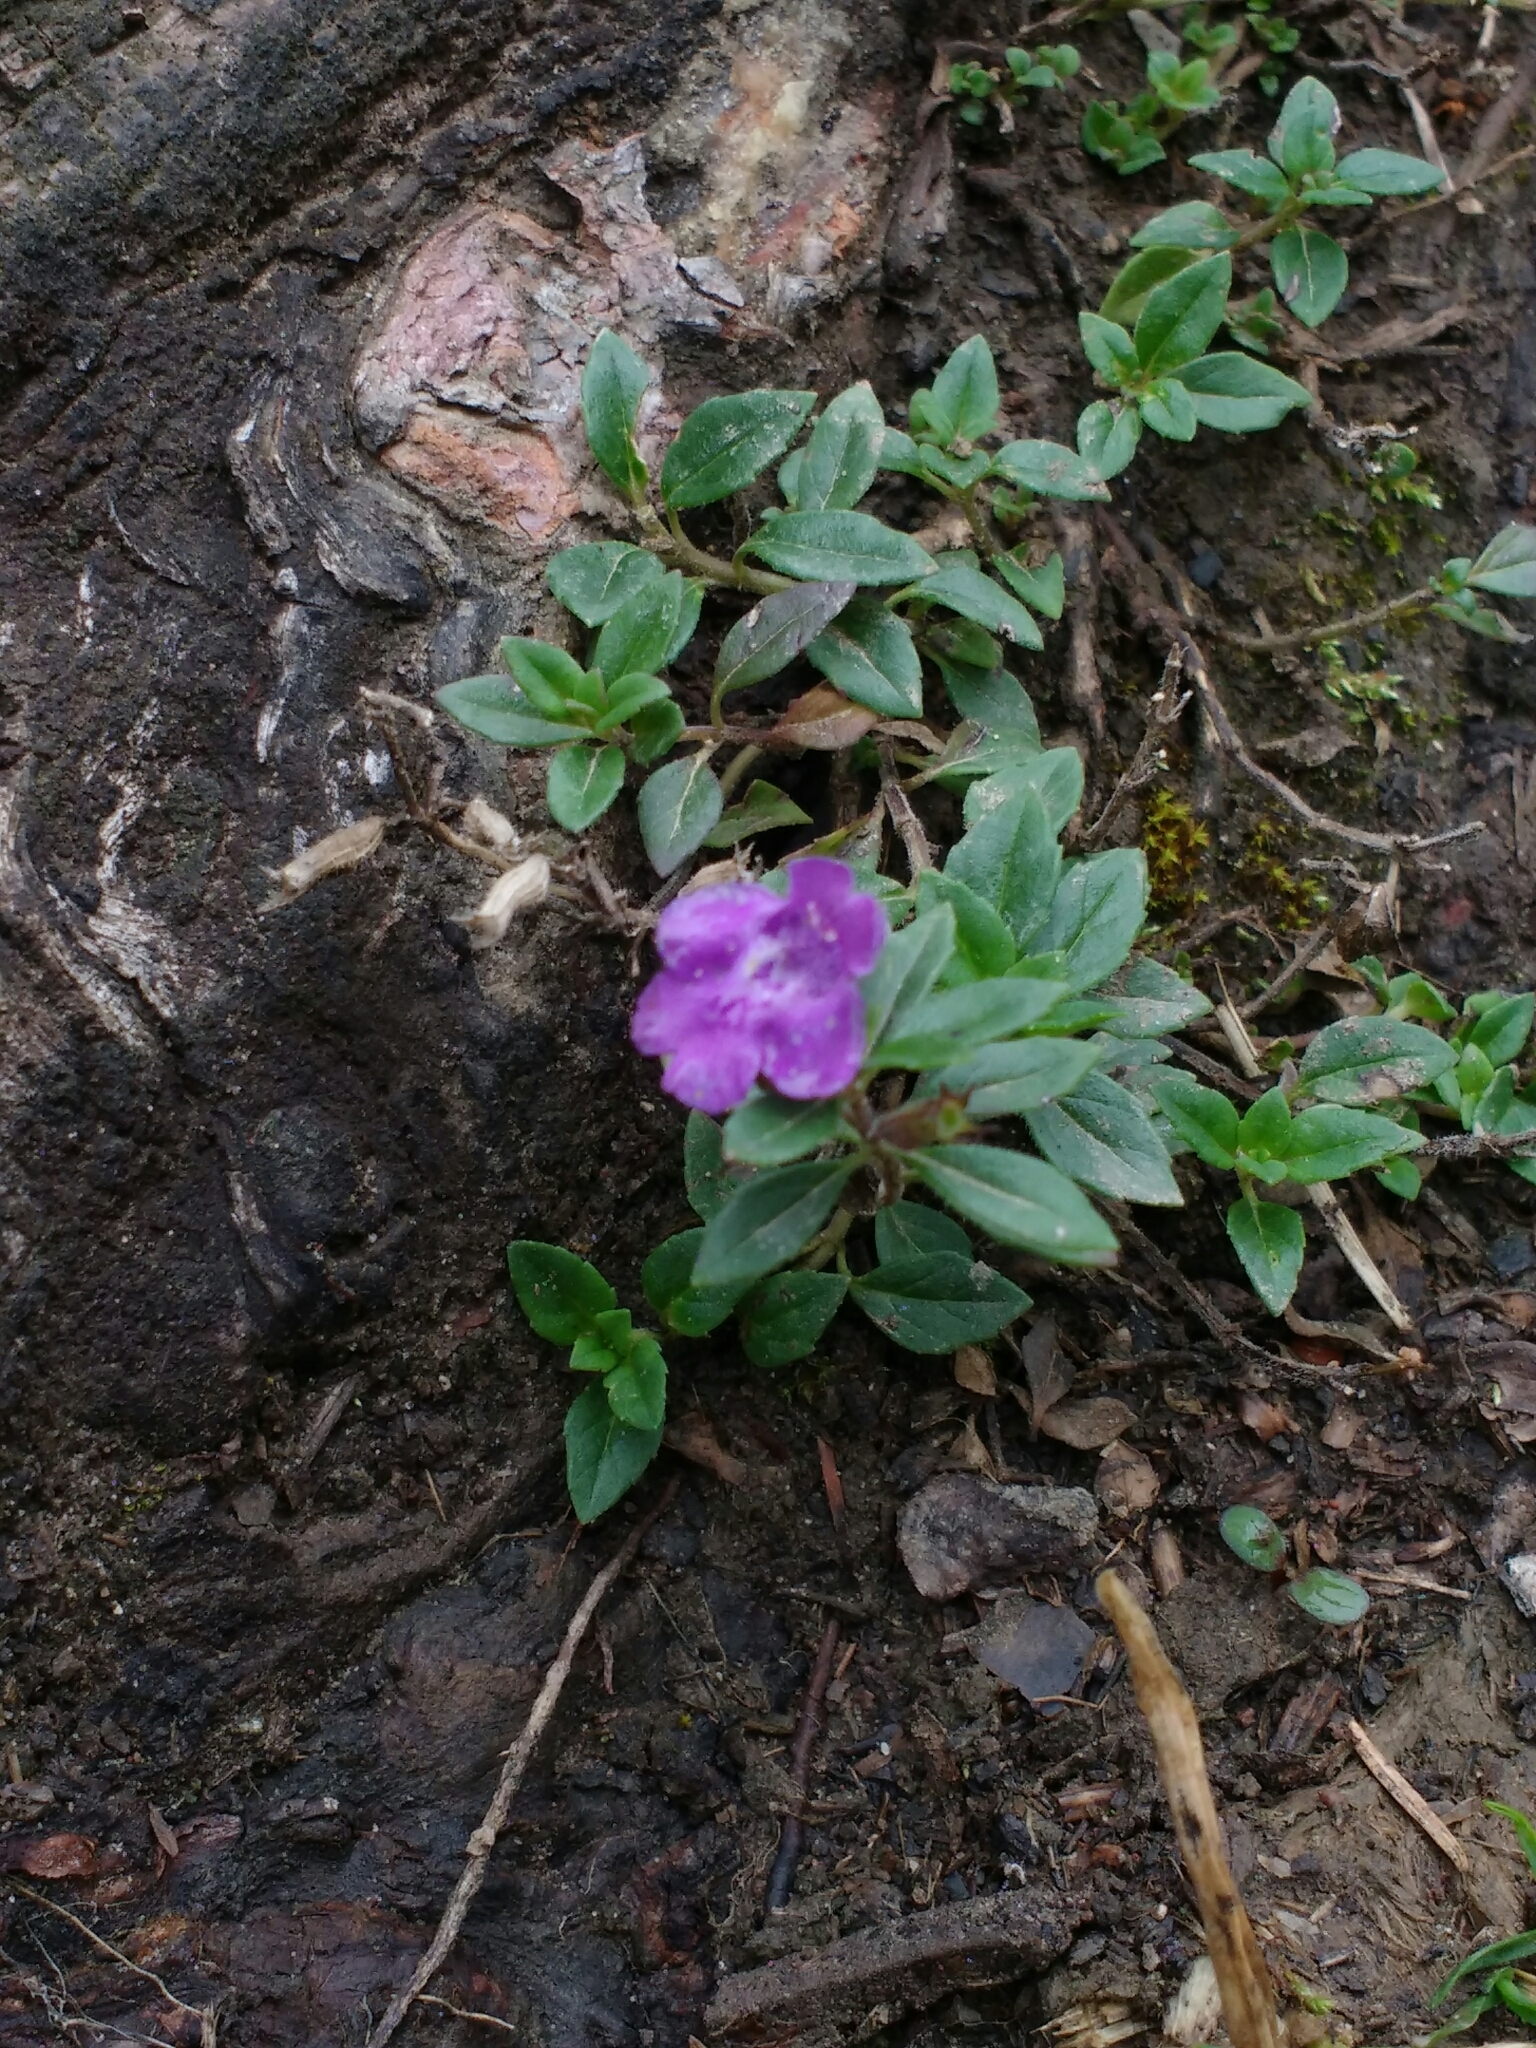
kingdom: Plantae
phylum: Tracheophyta
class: Magnoliopsida
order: Lamiales
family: Lamiaceae
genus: Clinopodium
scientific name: Clinopodium alpinum
